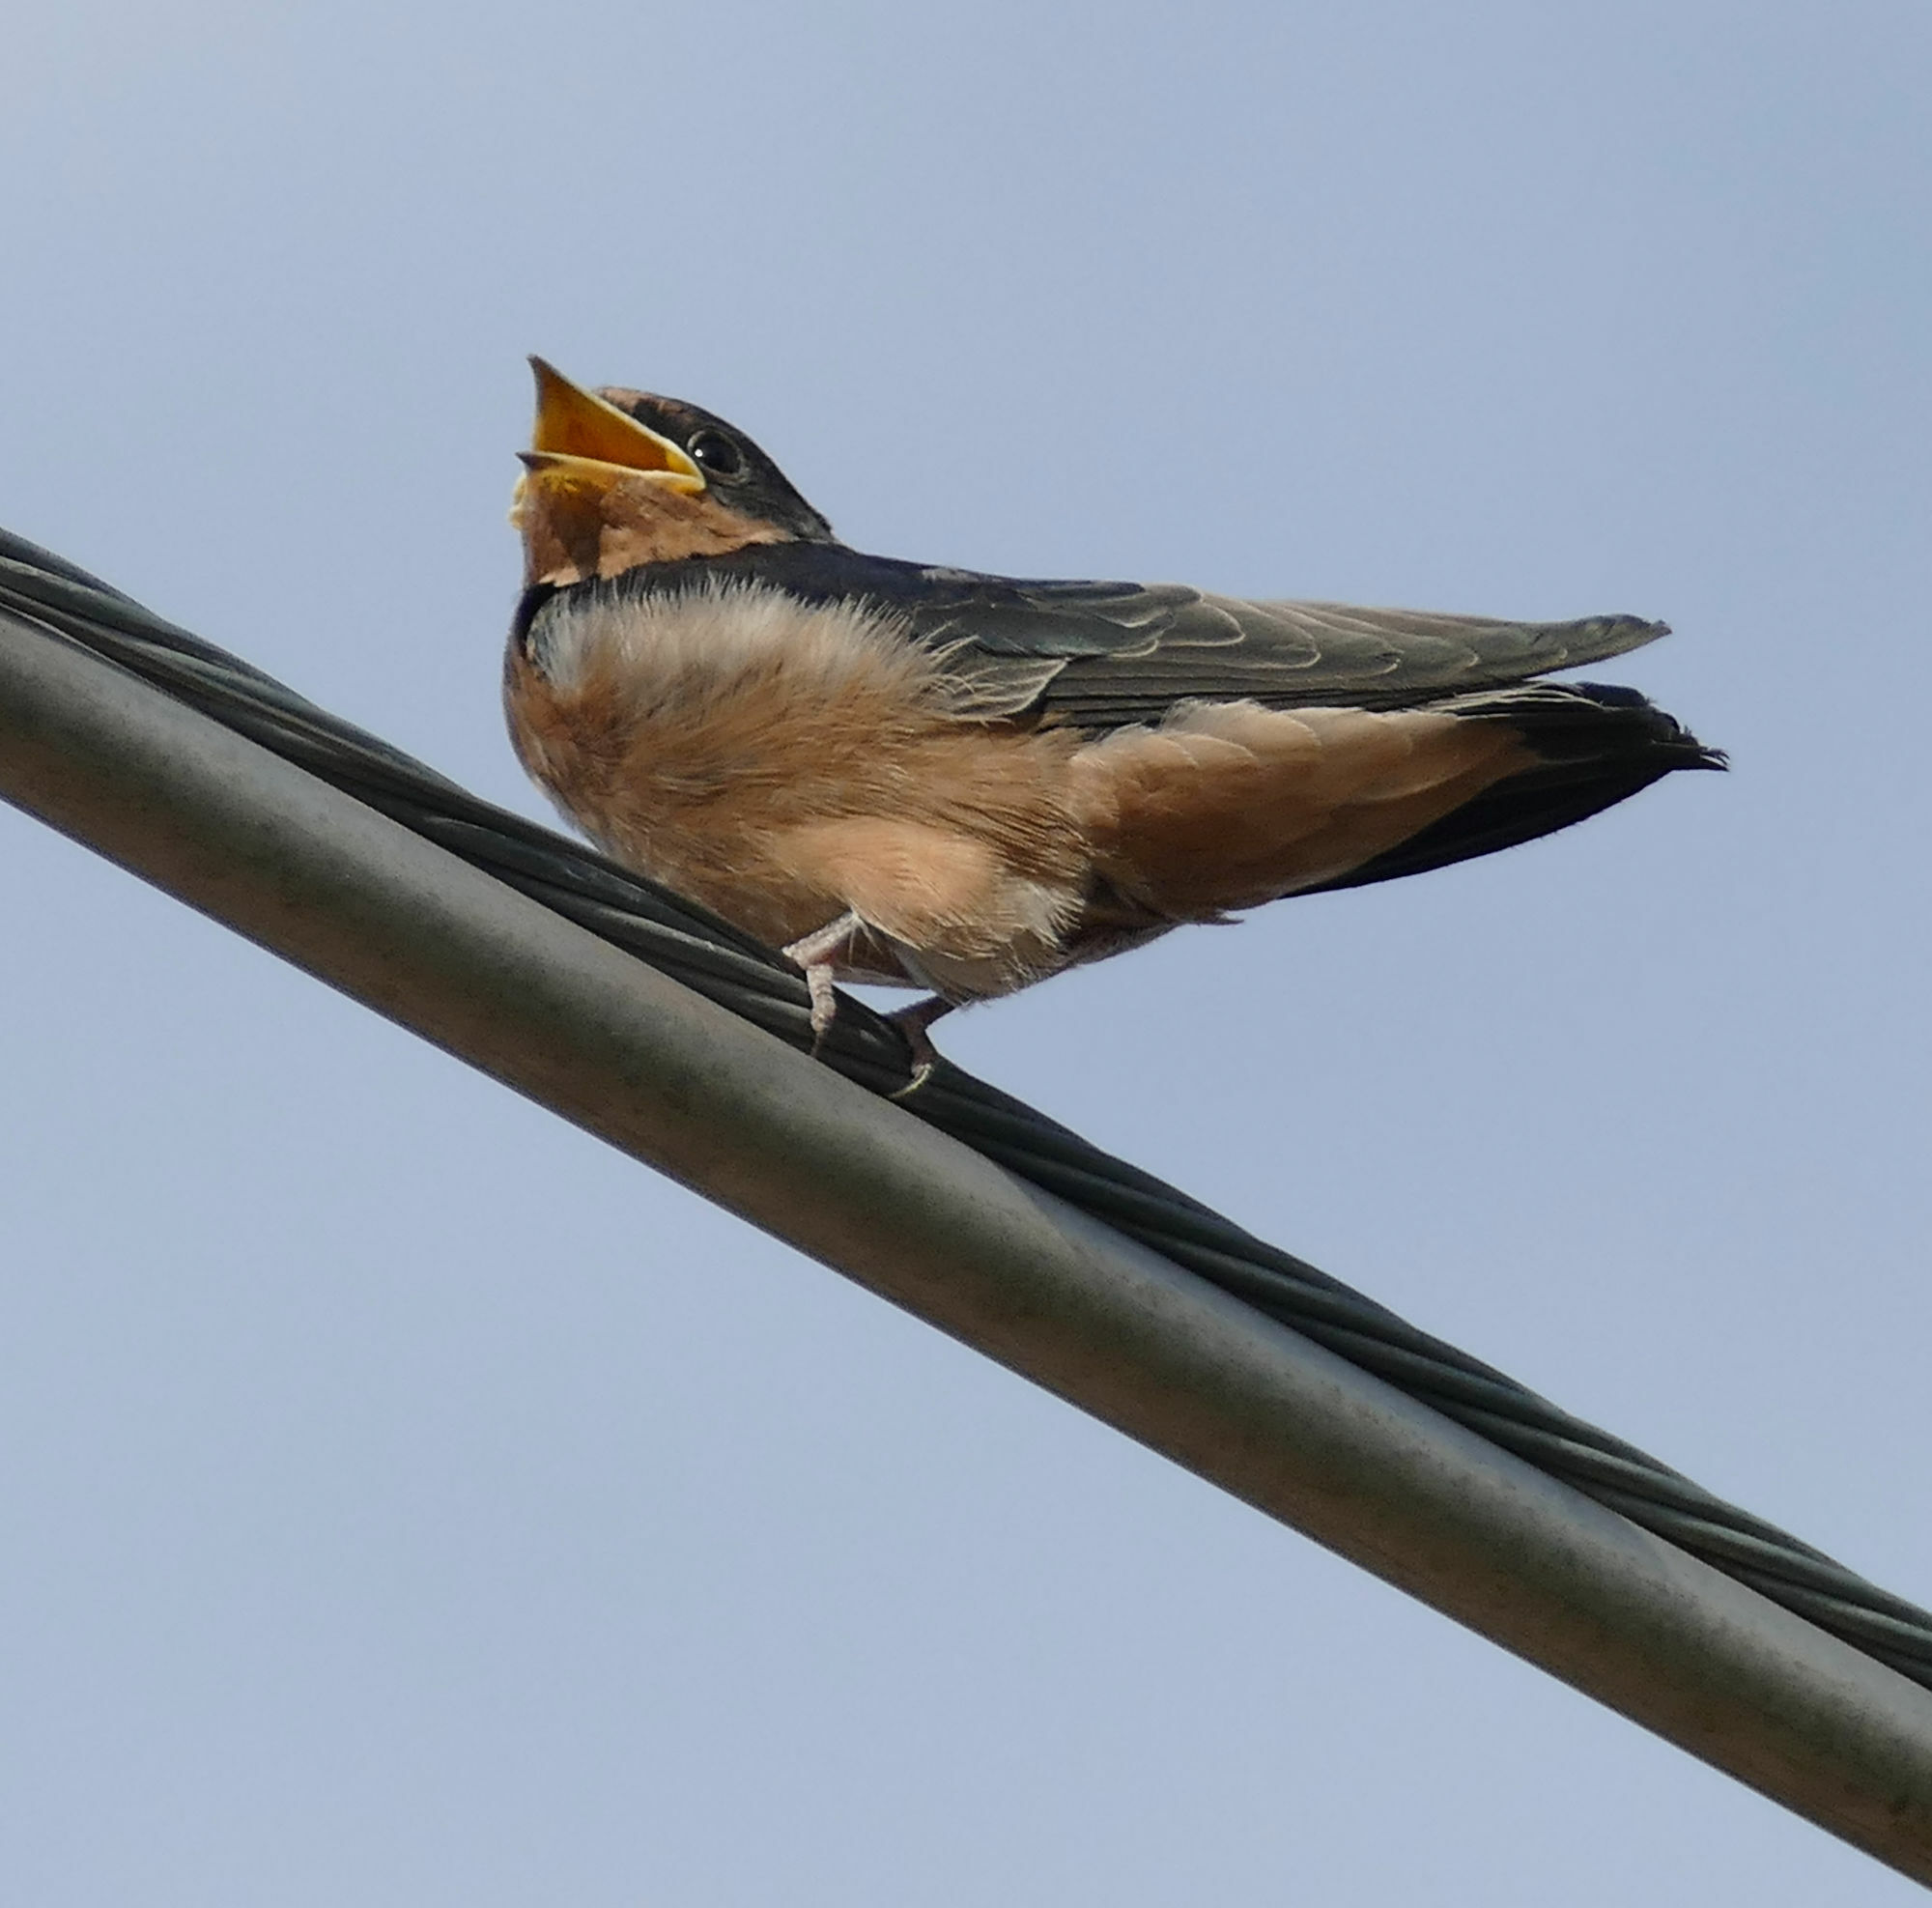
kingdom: Animalia
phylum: Chordata
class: Aves
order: Passeriformes
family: Hirundinidae
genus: Hirundo
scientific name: Hirundo rustica
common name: Barn swallow
